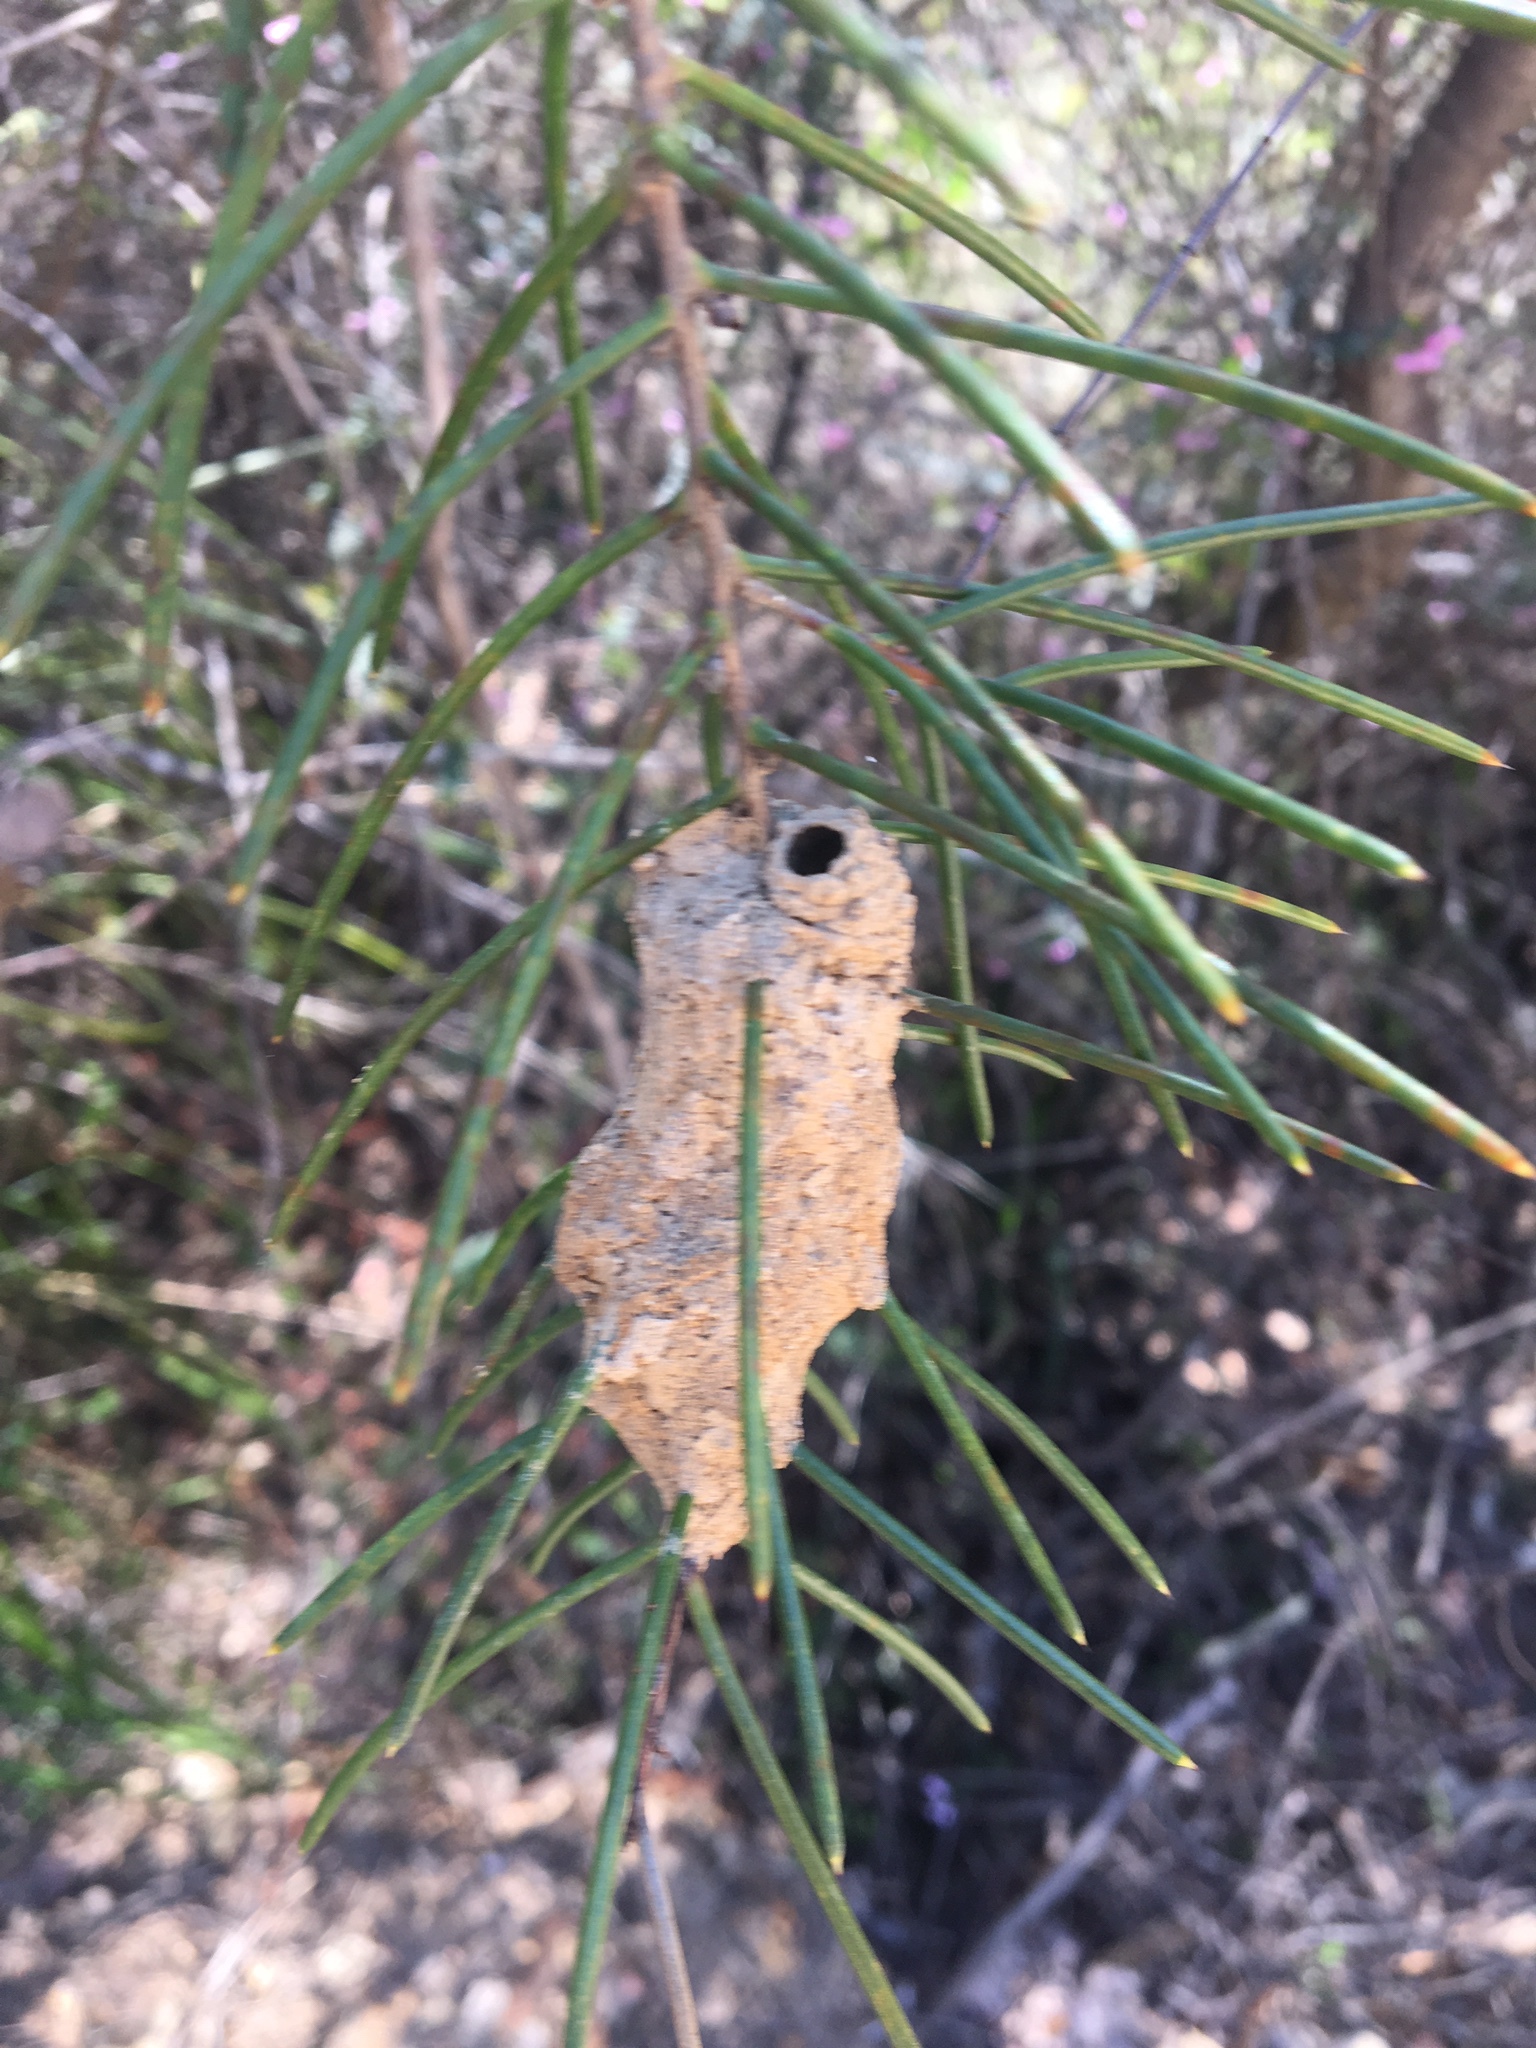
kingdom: Animalia
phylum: Arthropoda
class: Insecta
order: Hymenoptera
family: Eumenidae
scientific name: Eumenidae
